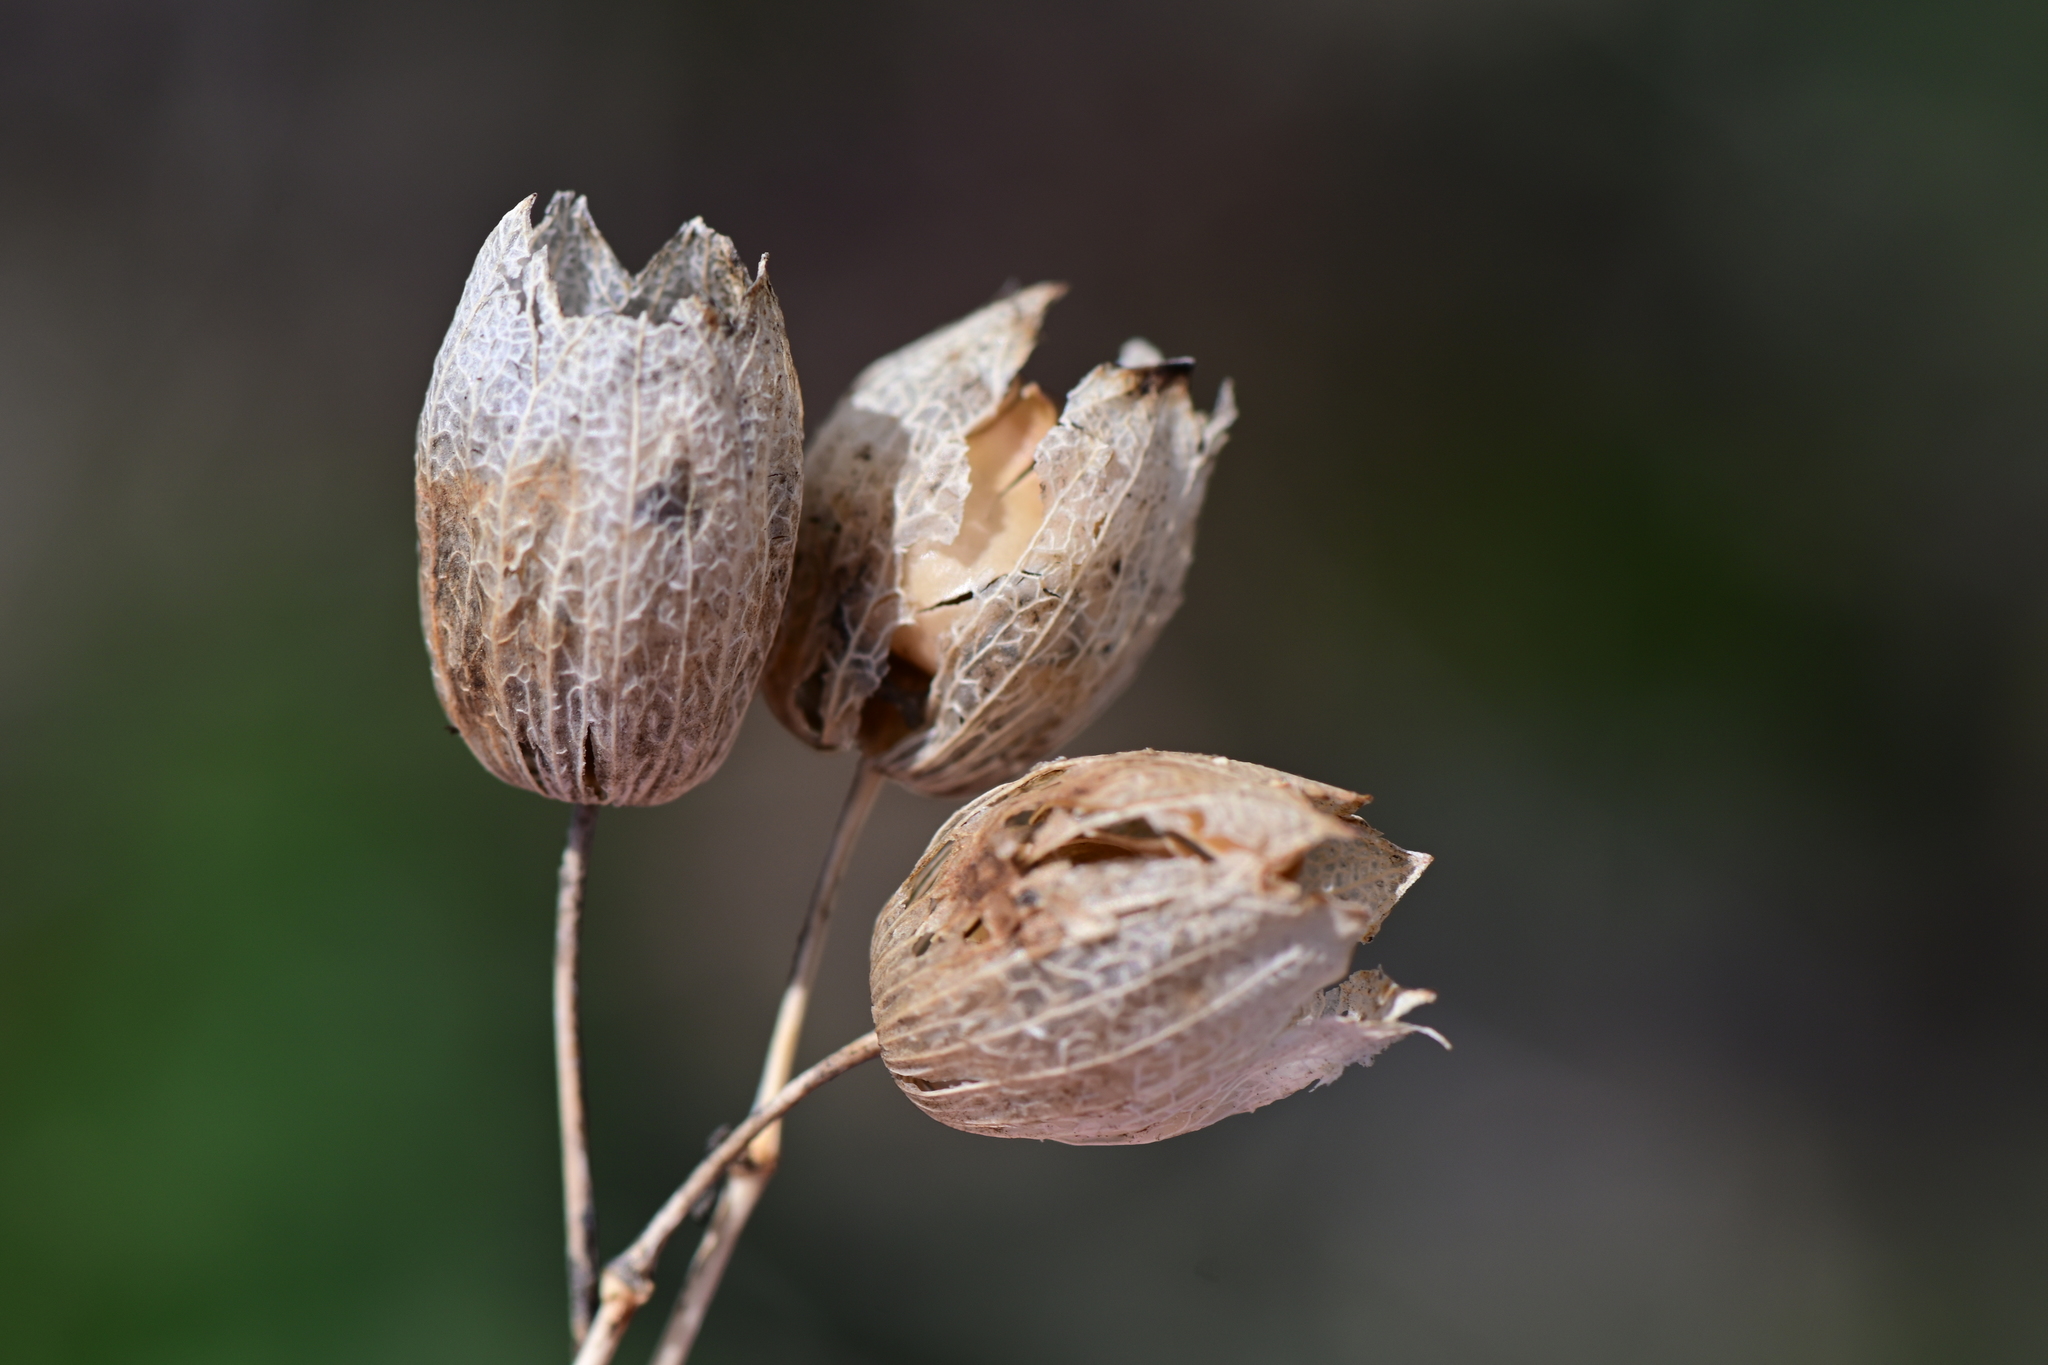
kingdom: Plantae
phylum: Tracheophyta
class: Magnoliopsida
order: Caryophyllales
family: Caryophyllaceae
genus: Silene
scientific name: Silene vulgaris
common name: Bladder campion
